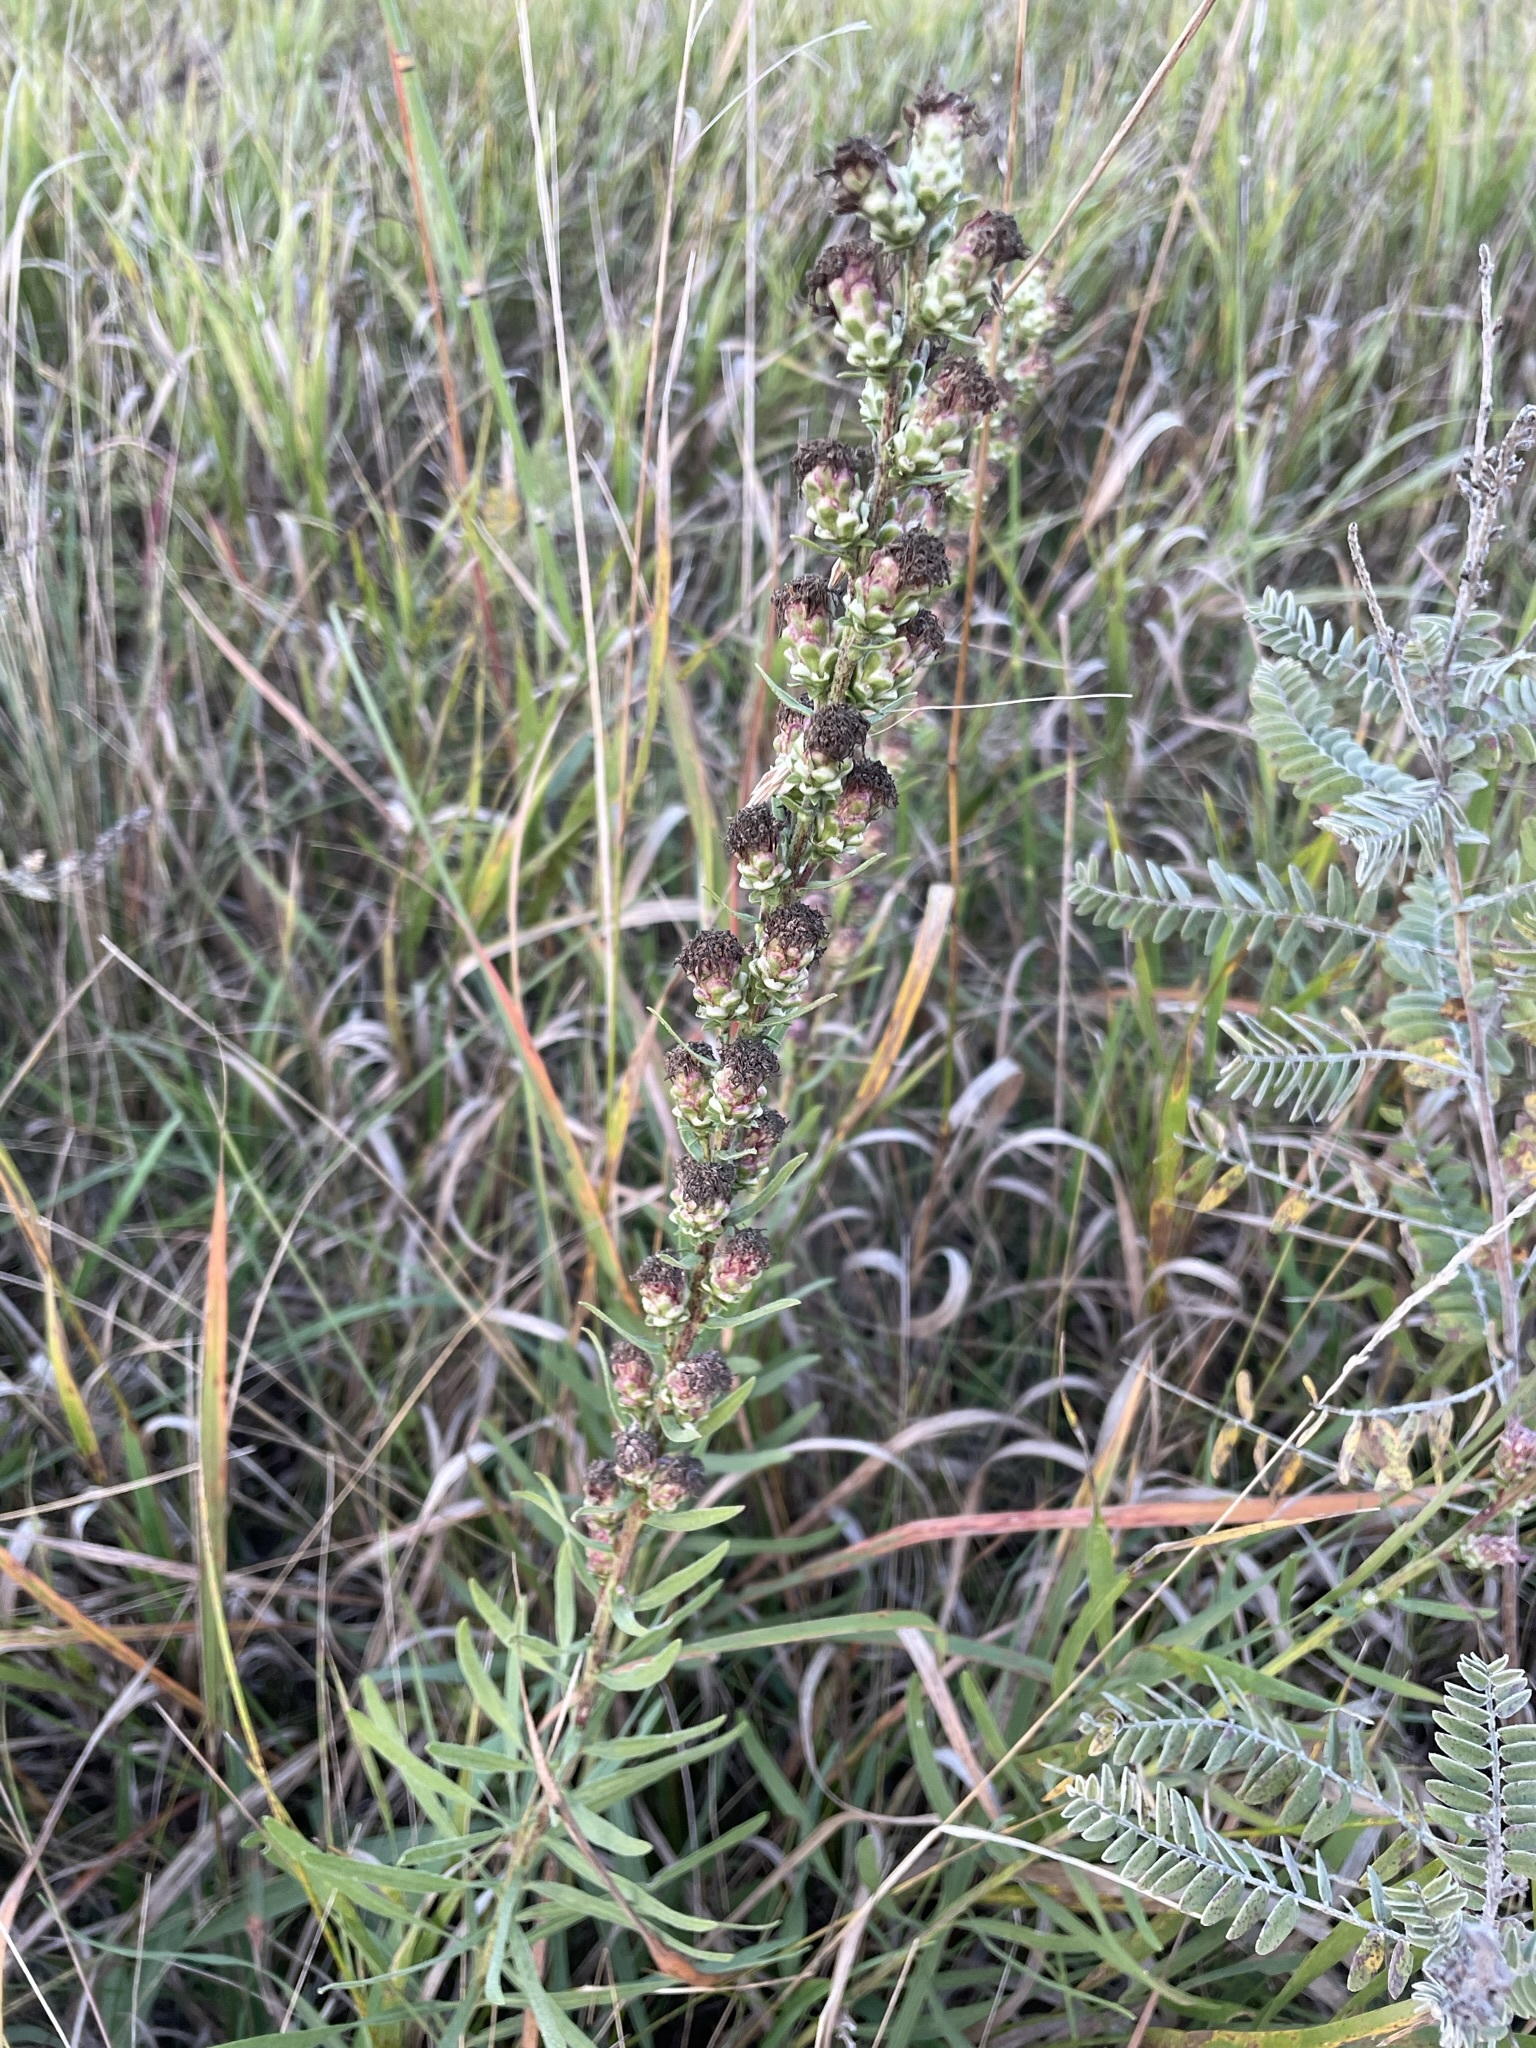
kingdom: Plantae
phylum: Tracheophyta
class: Magnoliopsida
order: Asterales
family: Asteraceae
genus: Liatris
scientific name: Liatris aspera
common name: Lacerate blazing-star
